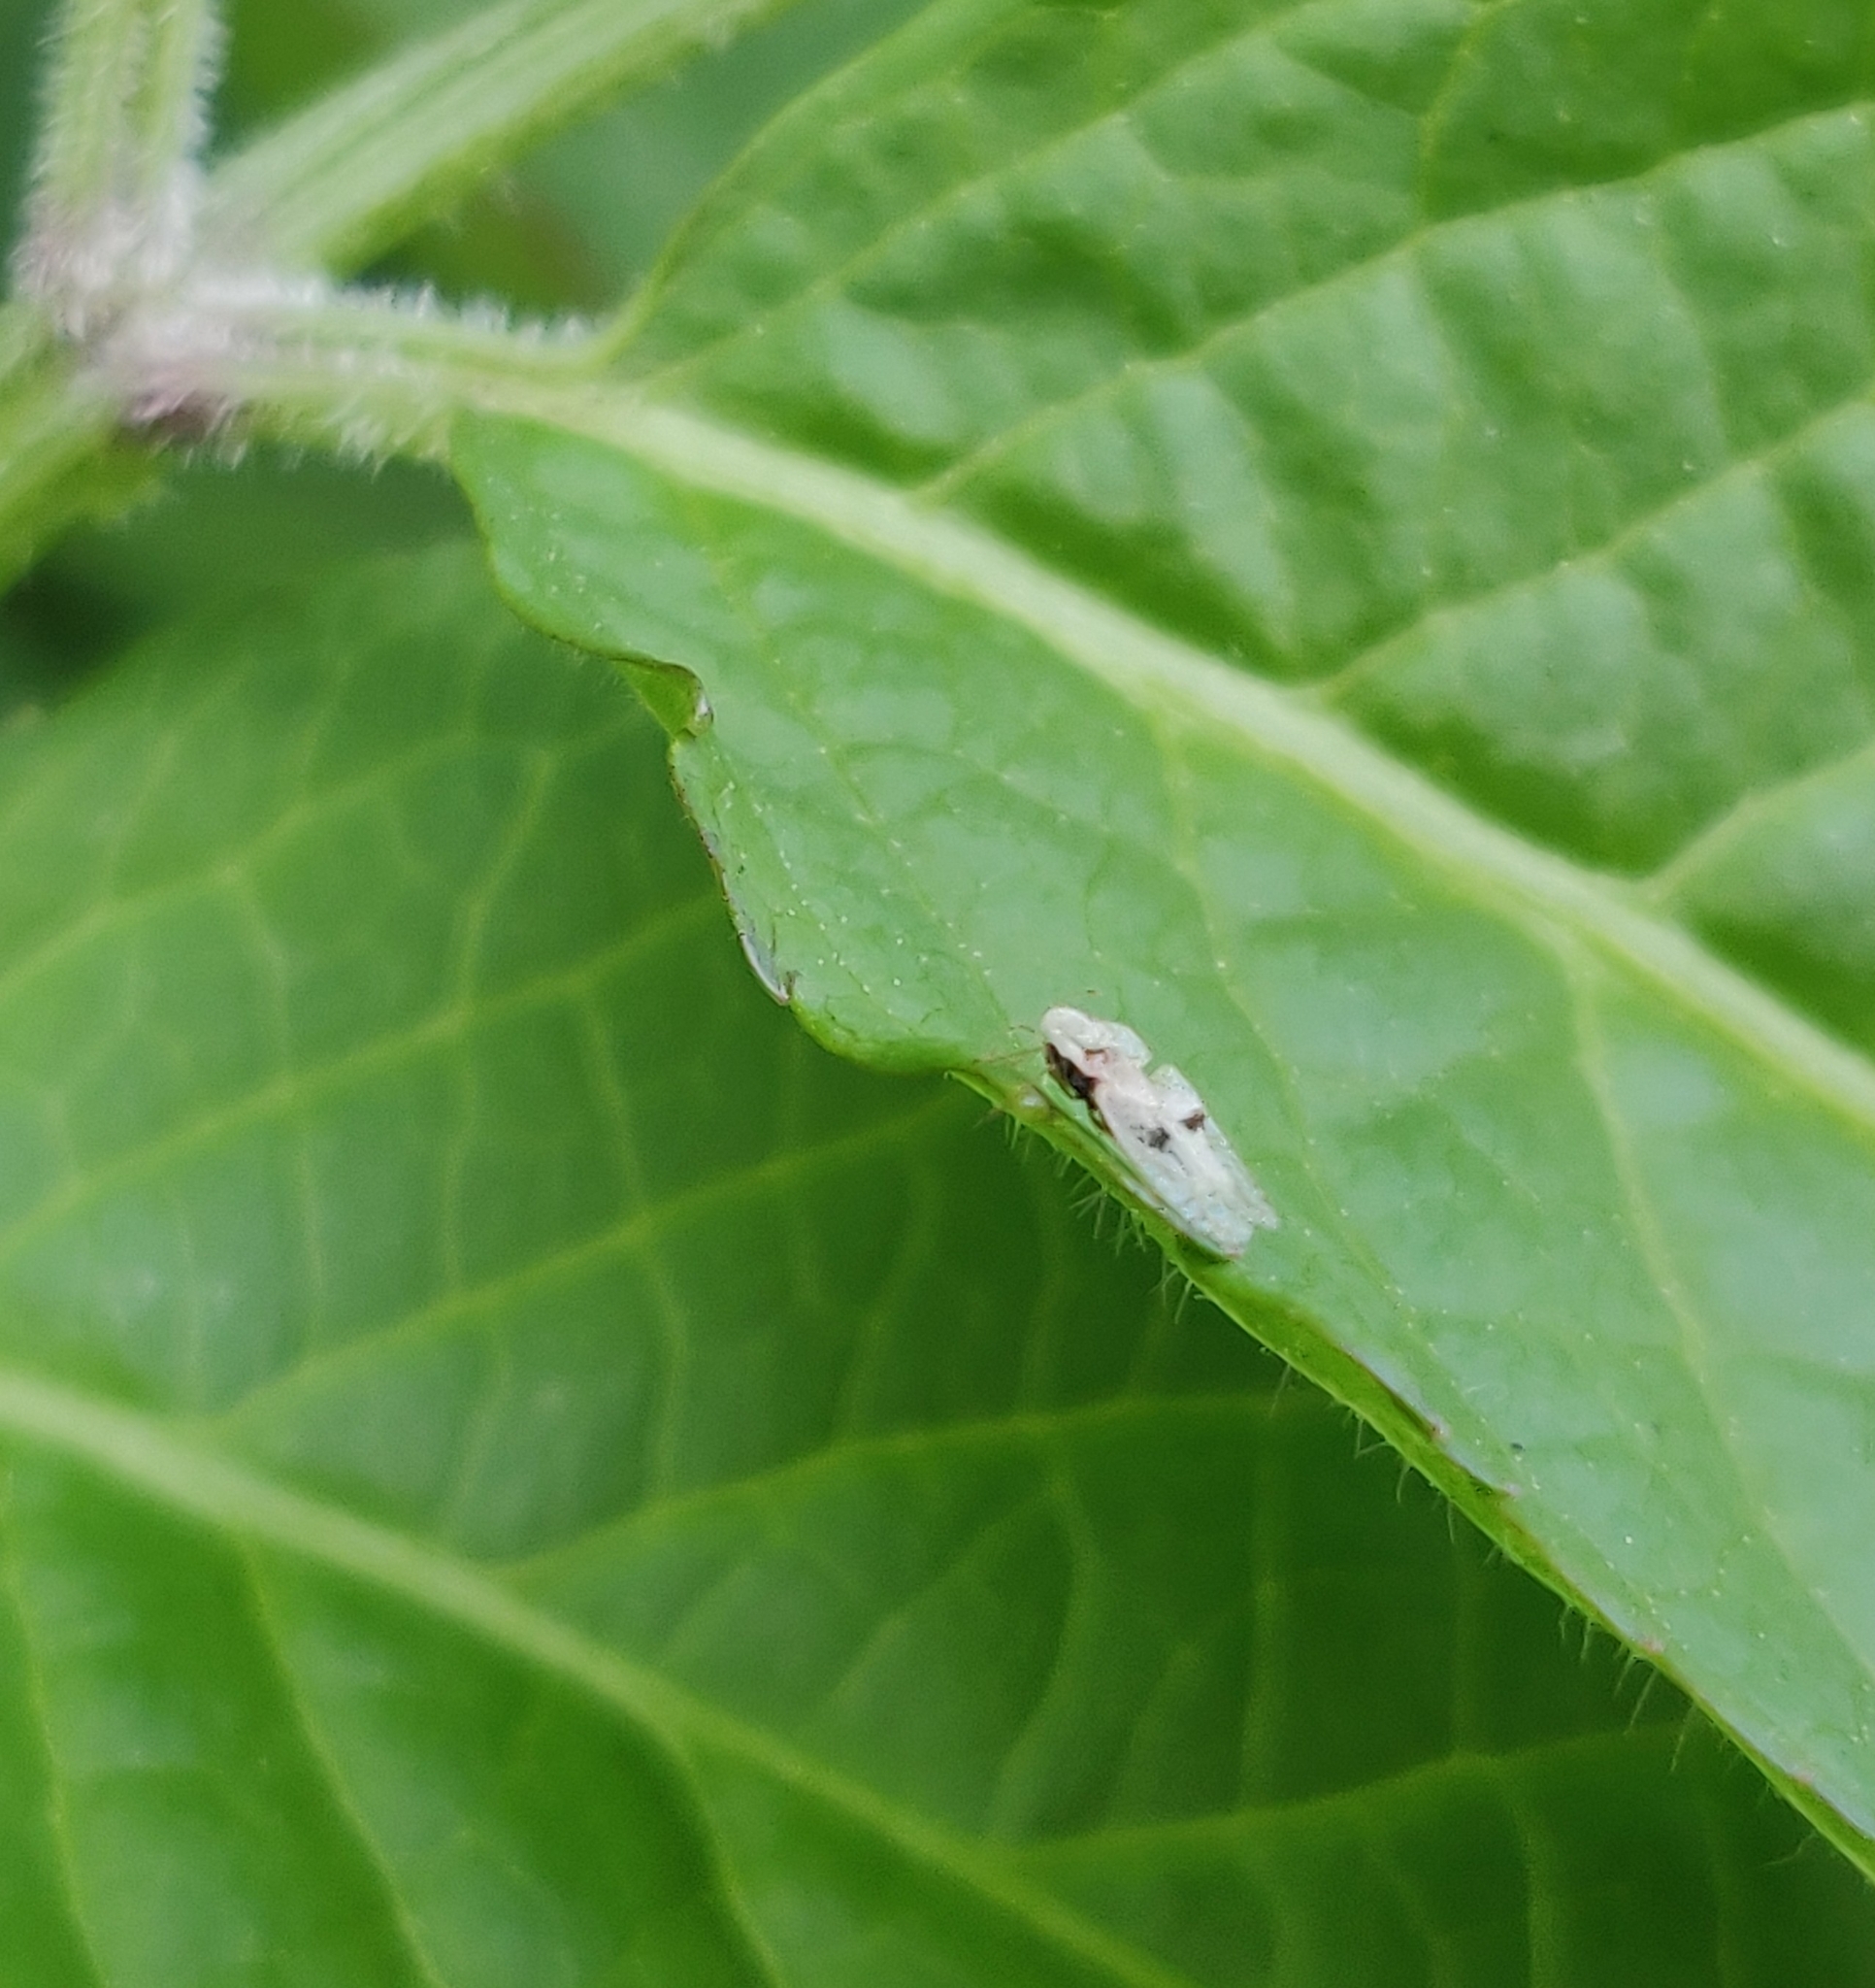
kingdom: Animalia
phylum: Arthropoda
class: Insecta
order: Hemiptera
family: Tingidae
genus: Corythucha
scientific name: Corythucha ciliata
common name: Sycamore lace bug
